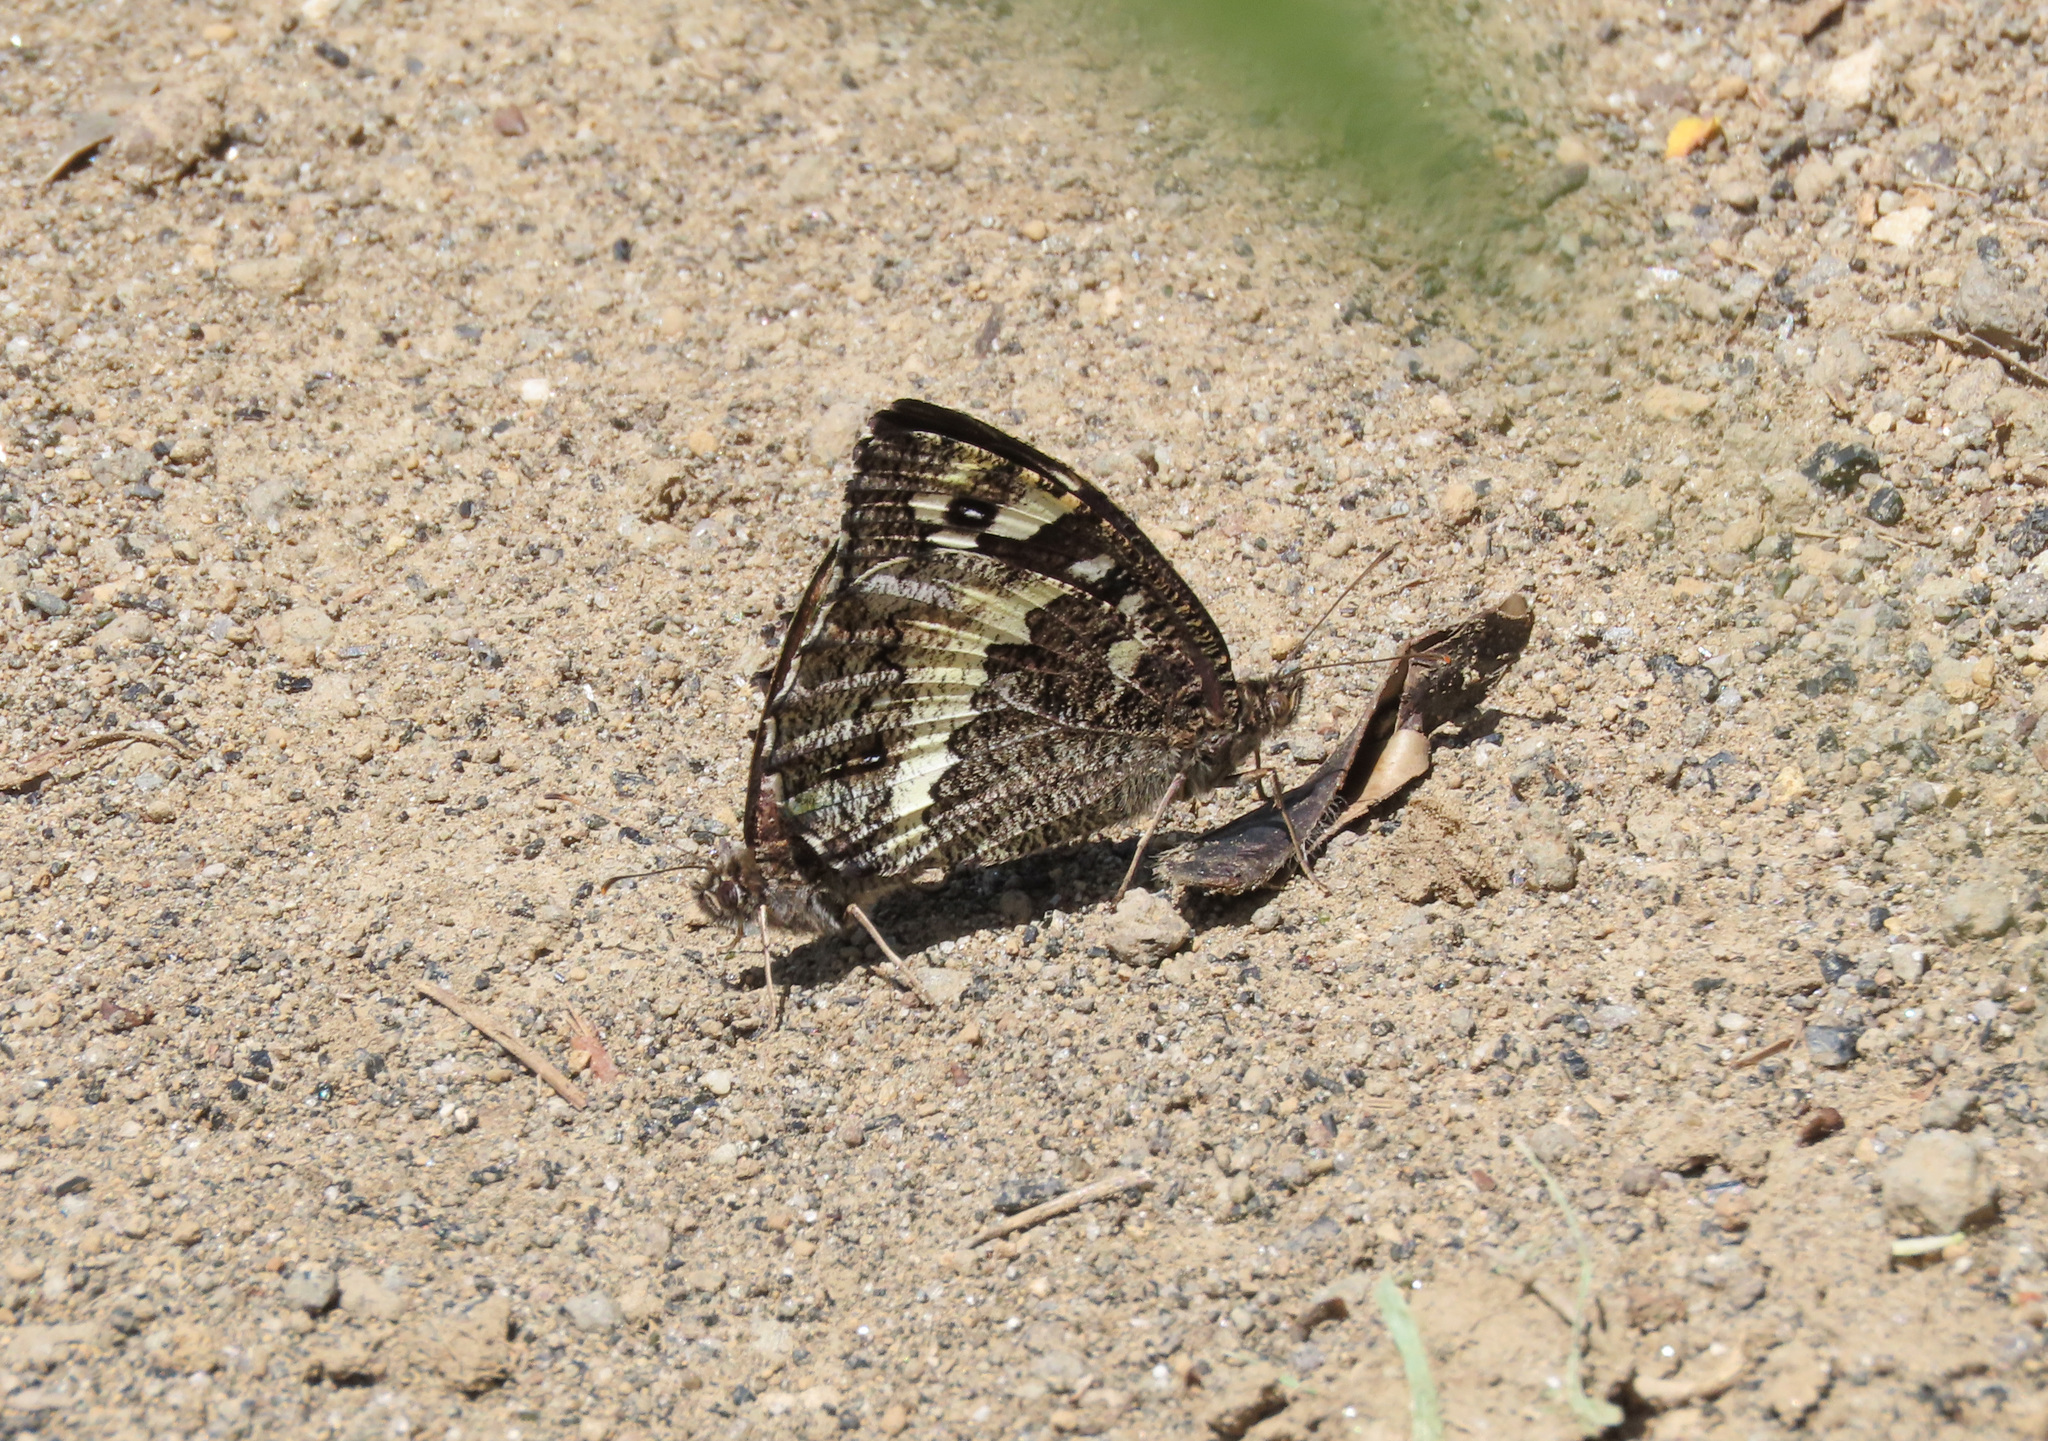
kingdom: Animalia
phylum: Arthropoda
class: Insecta
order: Lepidoptera
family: Lycaenidae
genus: Loweia
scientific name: Loweia tityrus
